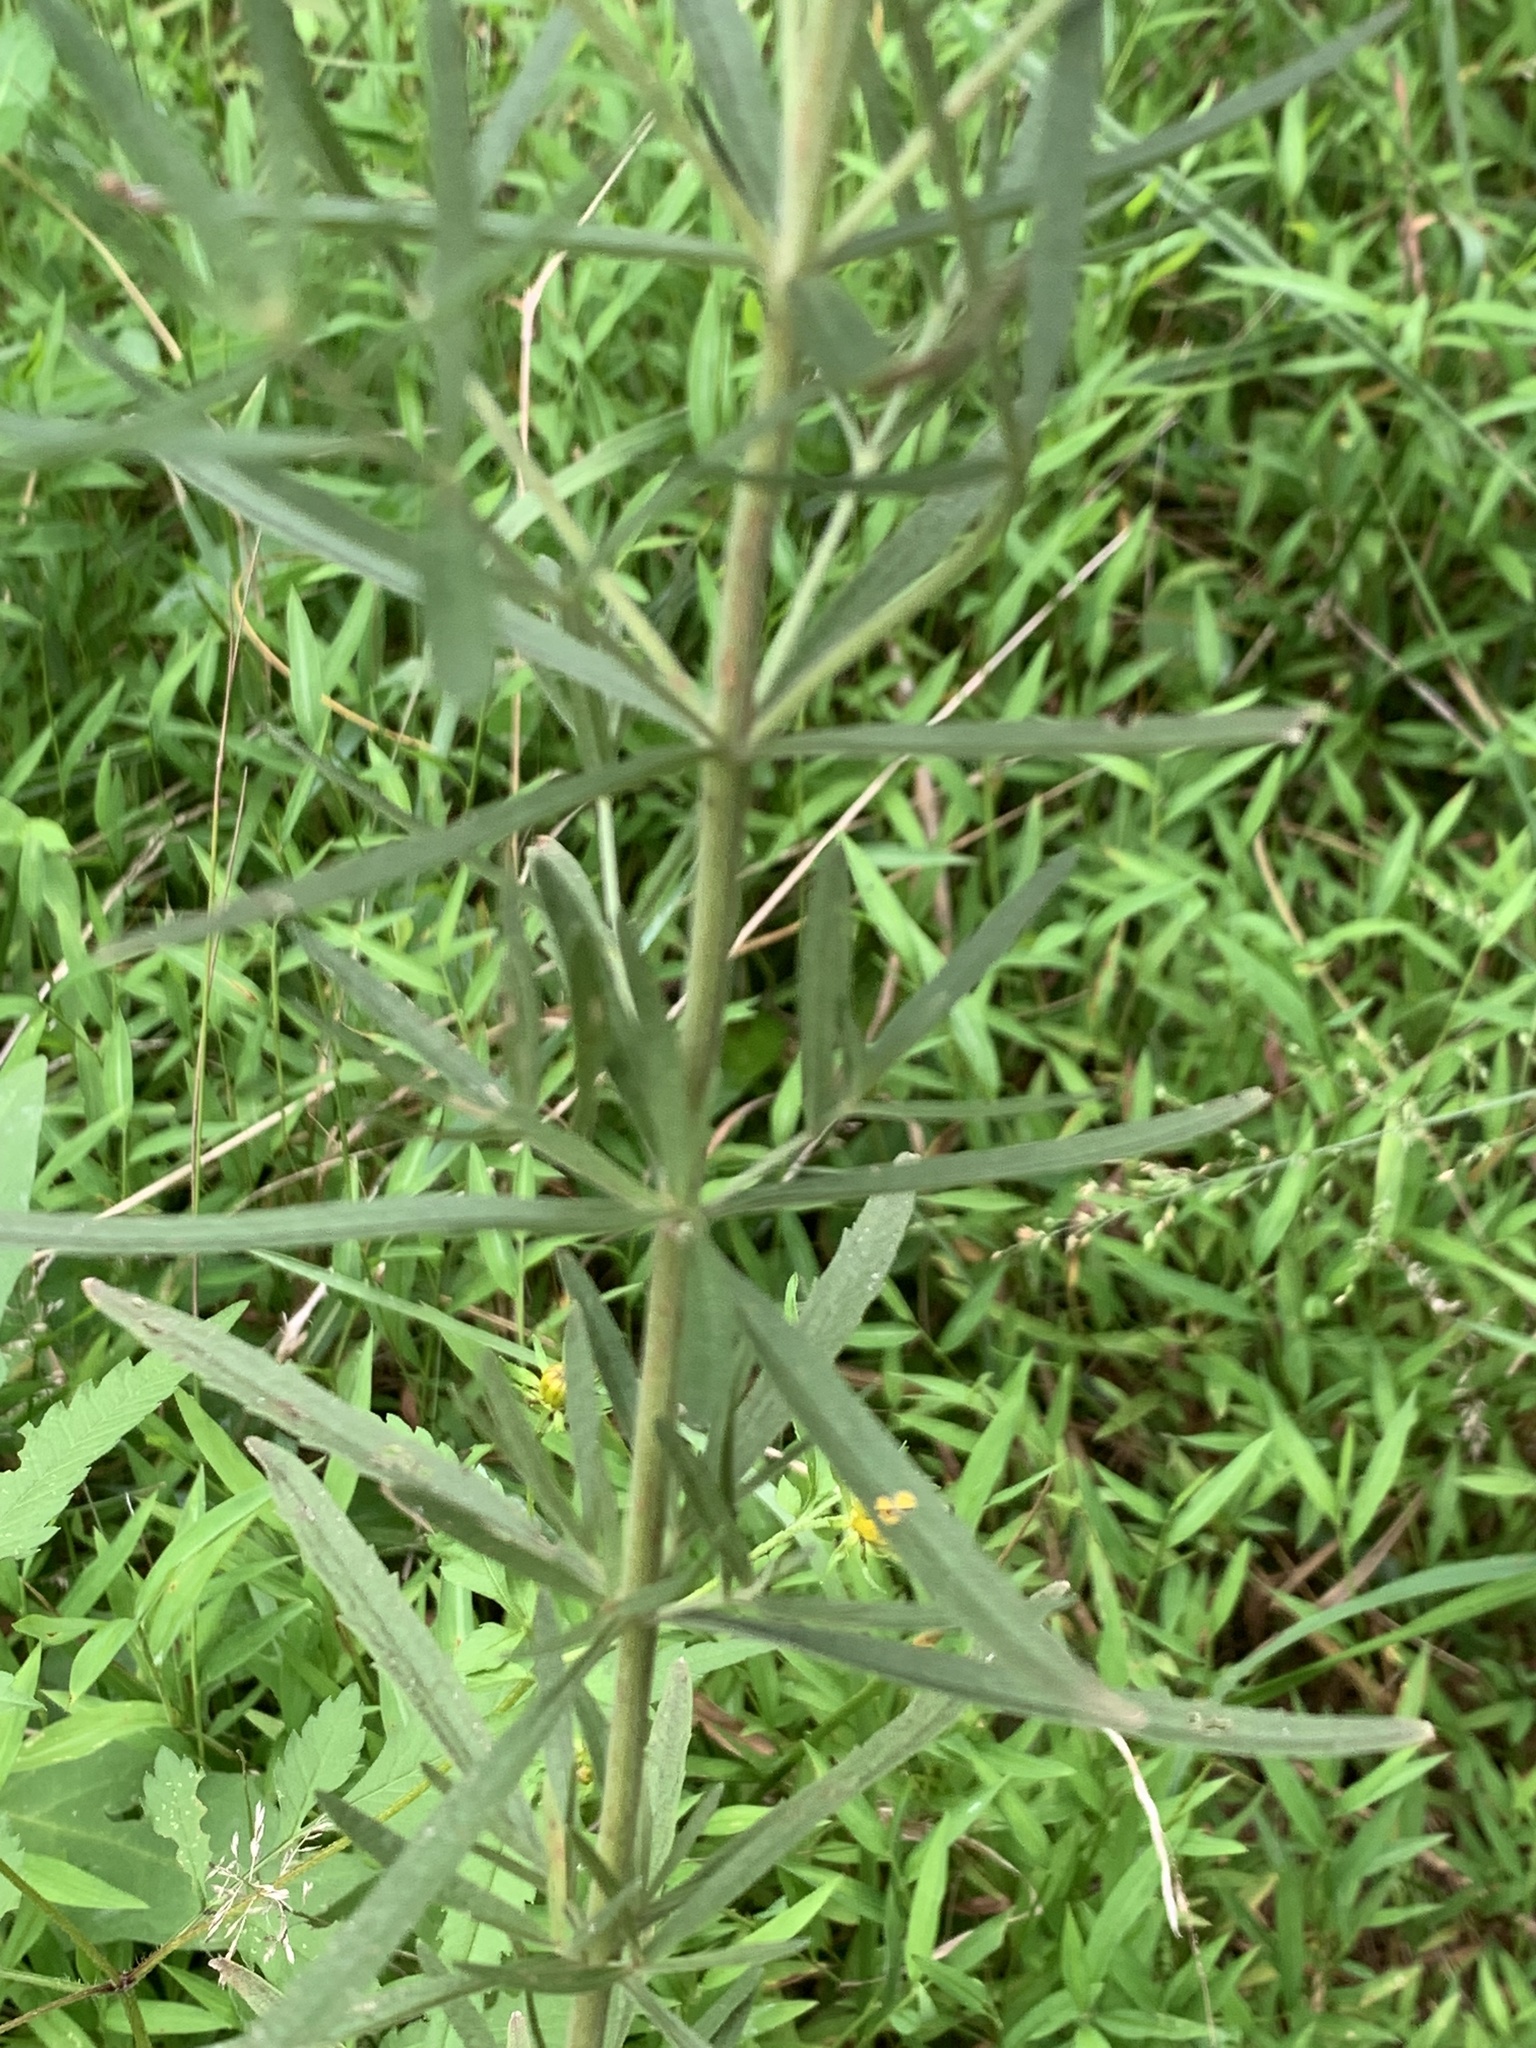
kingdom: Plantae
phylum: Tracheophyta
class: Magnoliopsida
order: Asterales
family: Asteraceae
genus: Eupatorium
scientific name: Eupatorium hyssopifolium
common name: Hyssop-leaf thoroughwort
